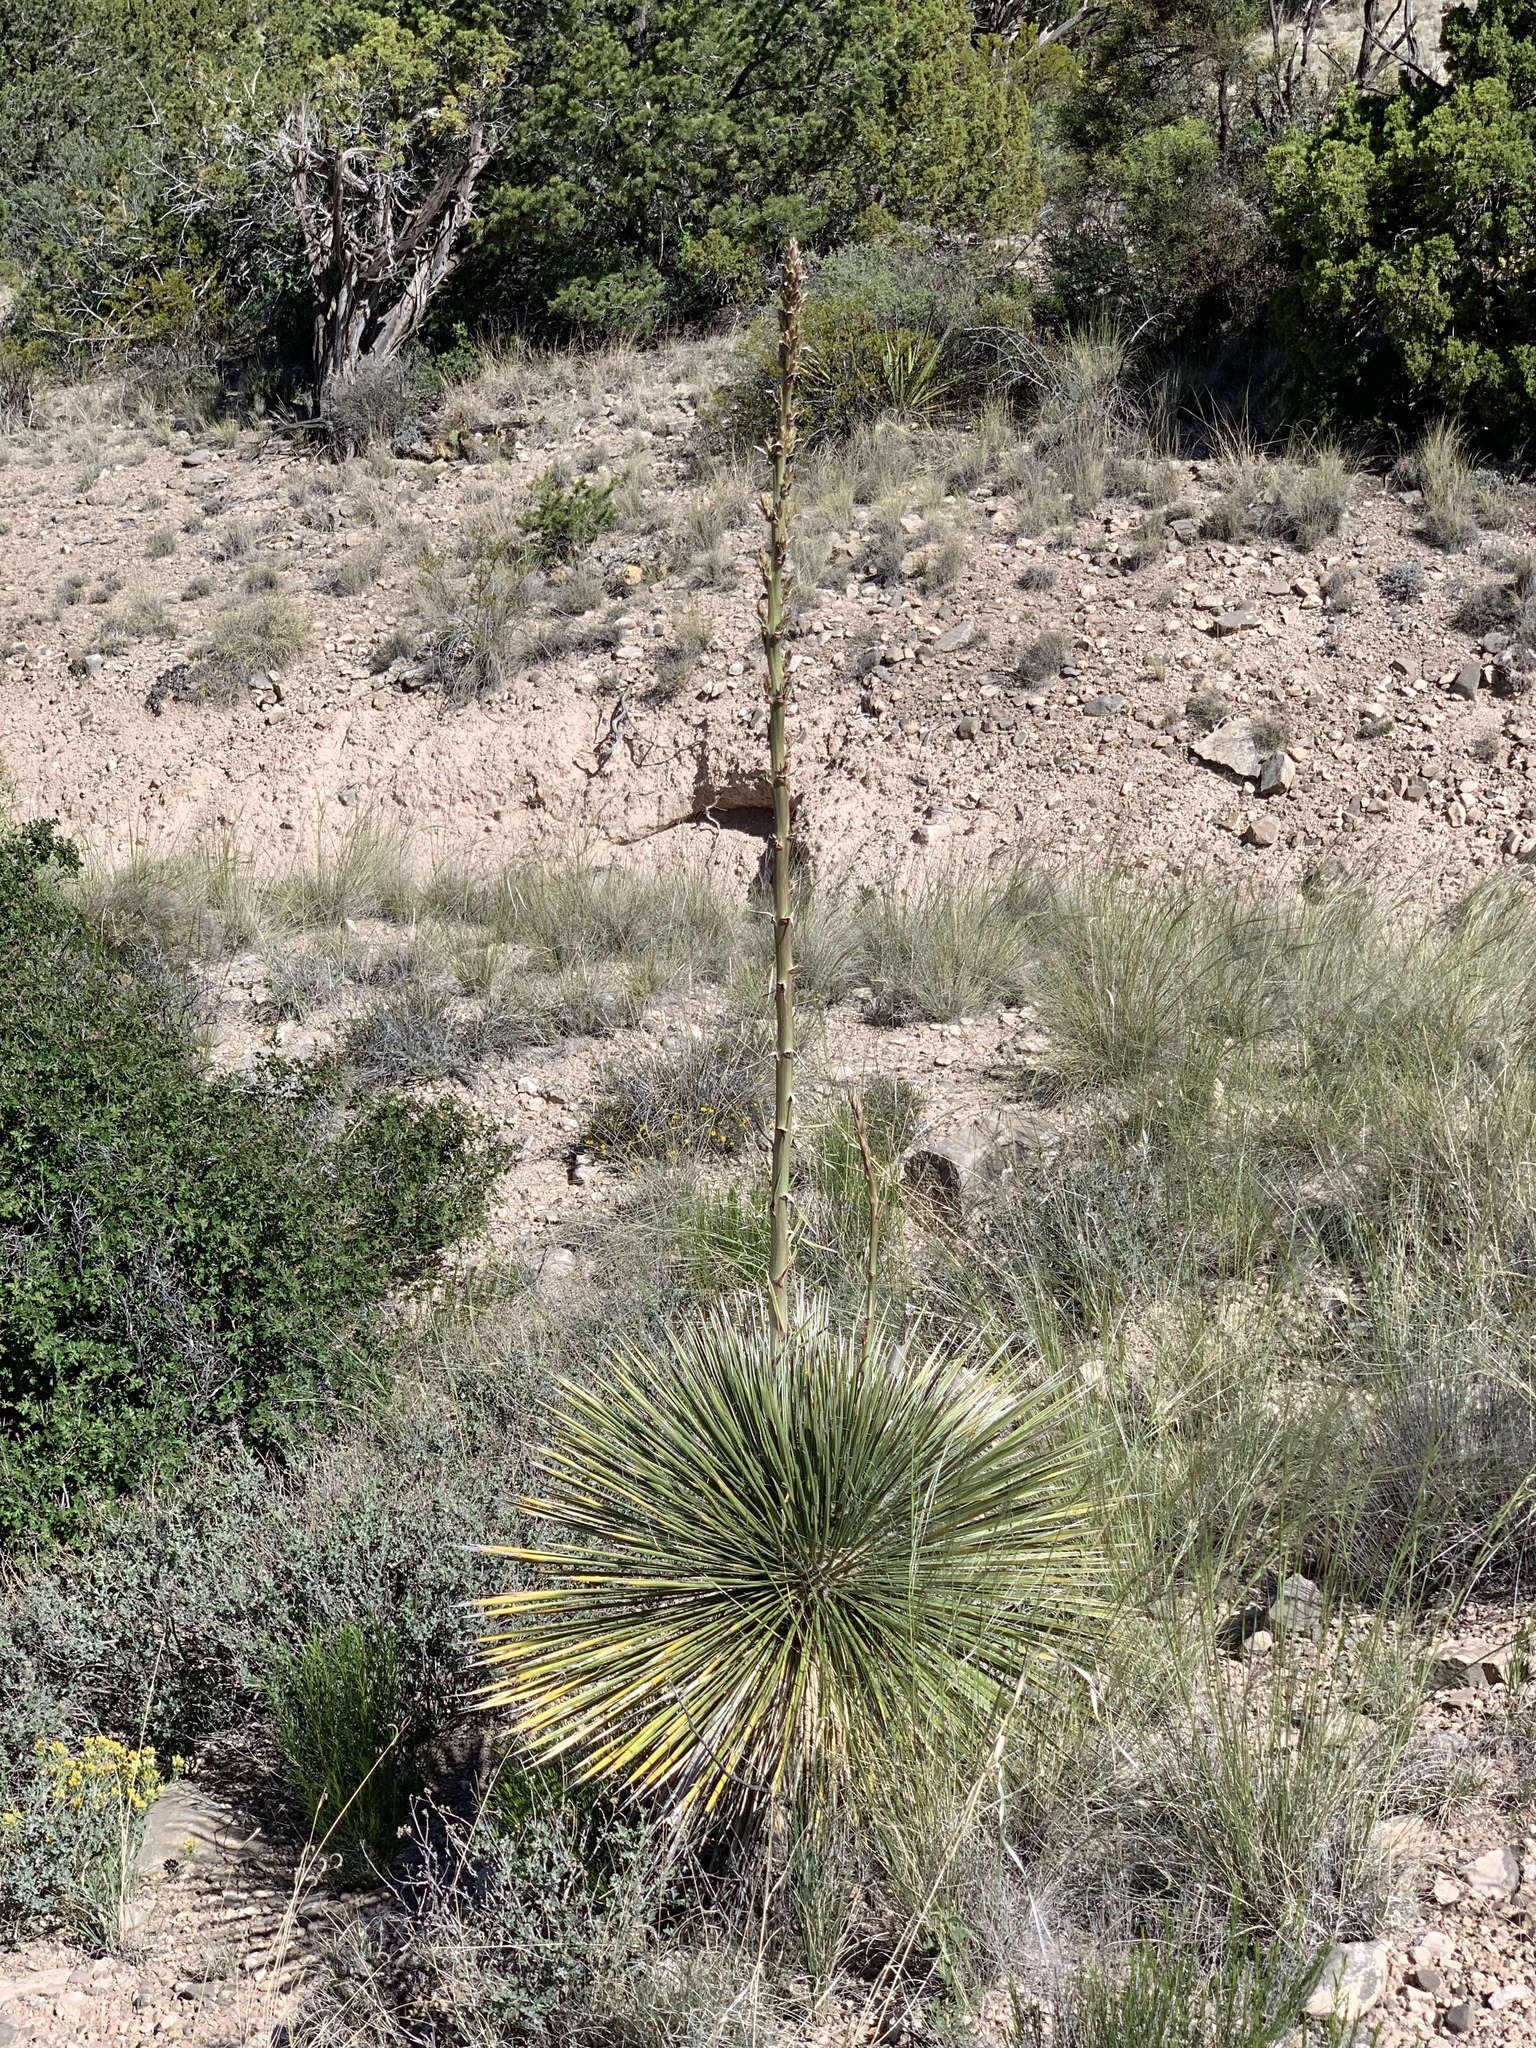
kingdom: Plantae
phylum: Tracheophyta
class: Liliopsida
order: Asparagales
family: Asparagaceae
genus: Dasylirion
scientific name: Dasylirion wheeleri
